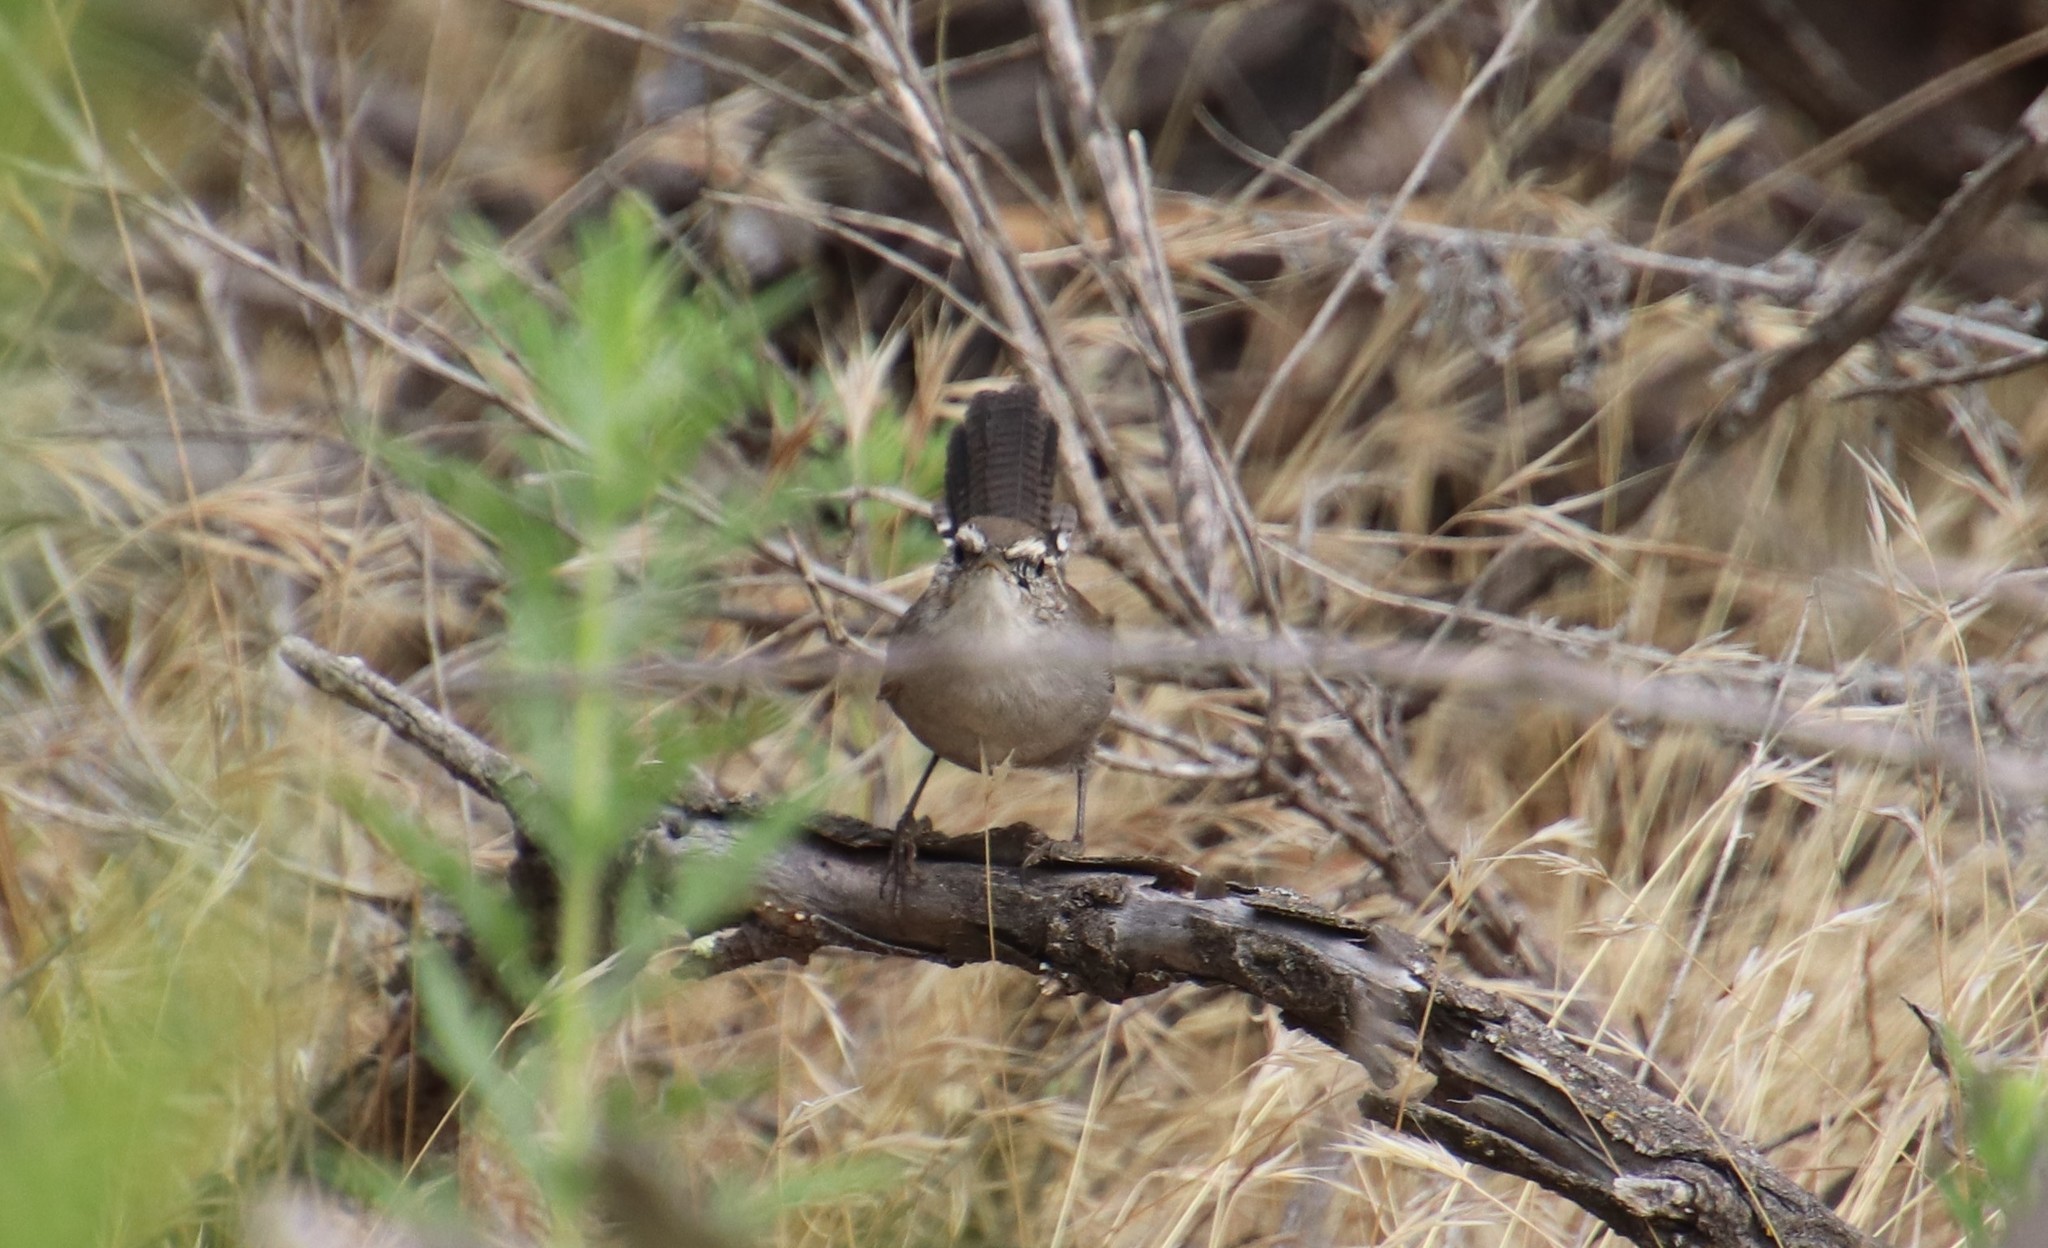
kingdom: Animalia
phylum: Chordata
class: Aves
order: Passeriformes
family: Troglodytidae
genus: Thryomanes
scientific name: Thryomanes bewickii
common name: Bewick's wren
